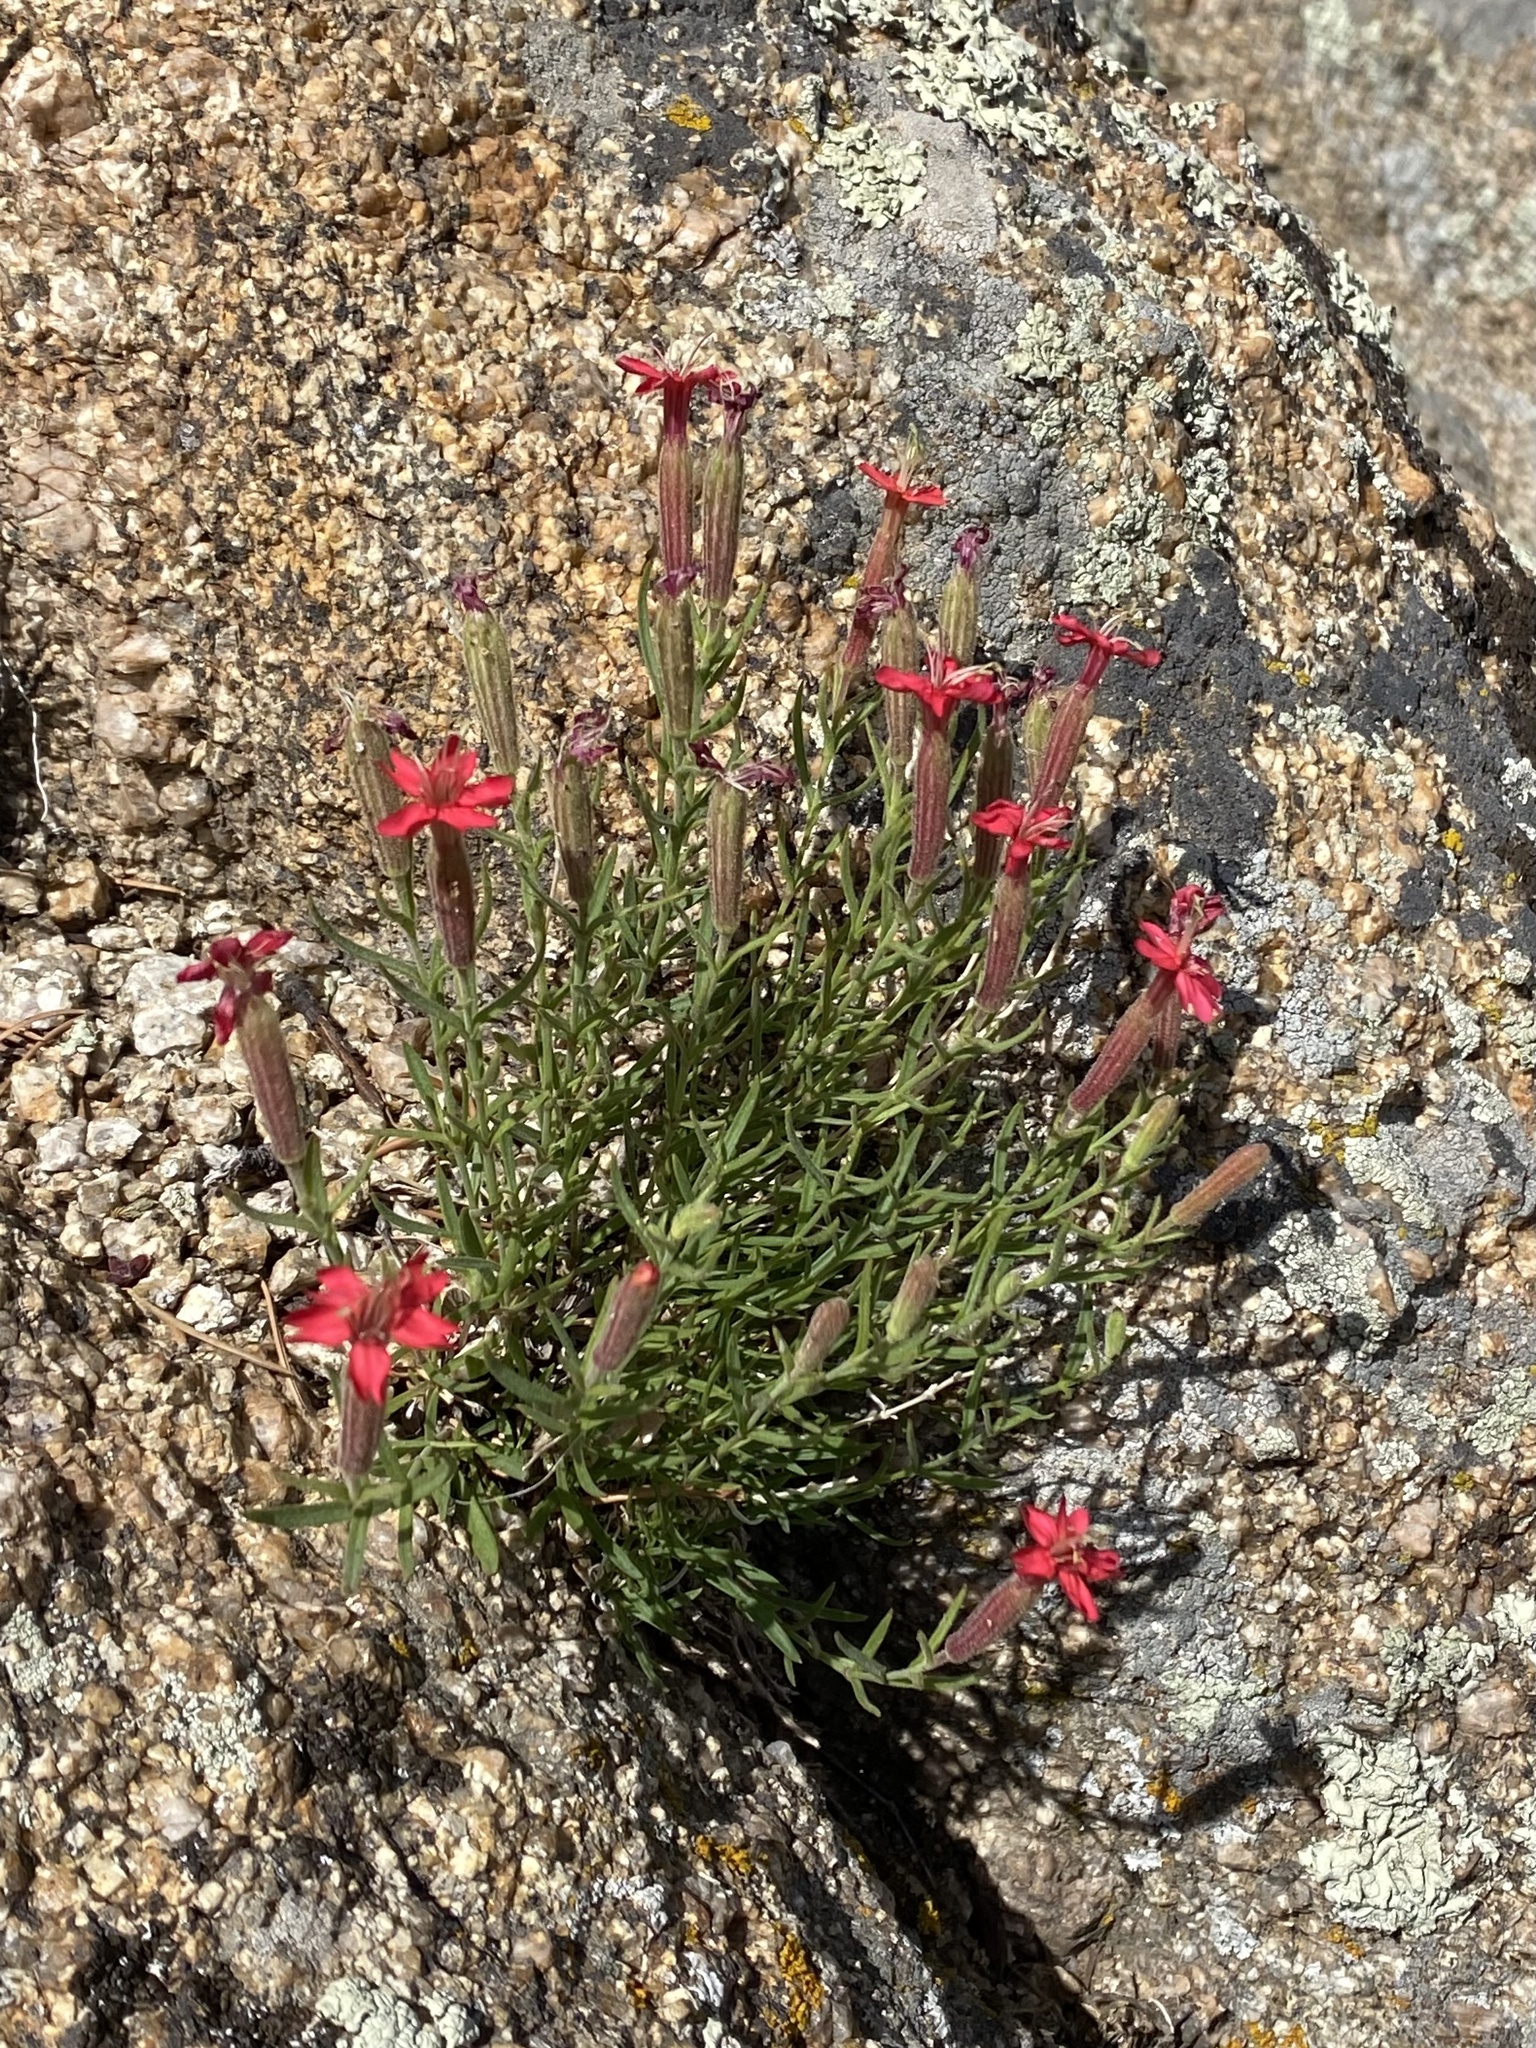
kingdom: Plantae
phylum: Tracheophyta
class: Magnoliopsida
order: Caryophyllales
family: Caryophyllaceae
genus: Silene
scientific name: Silene plankii
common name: Plank's campion
